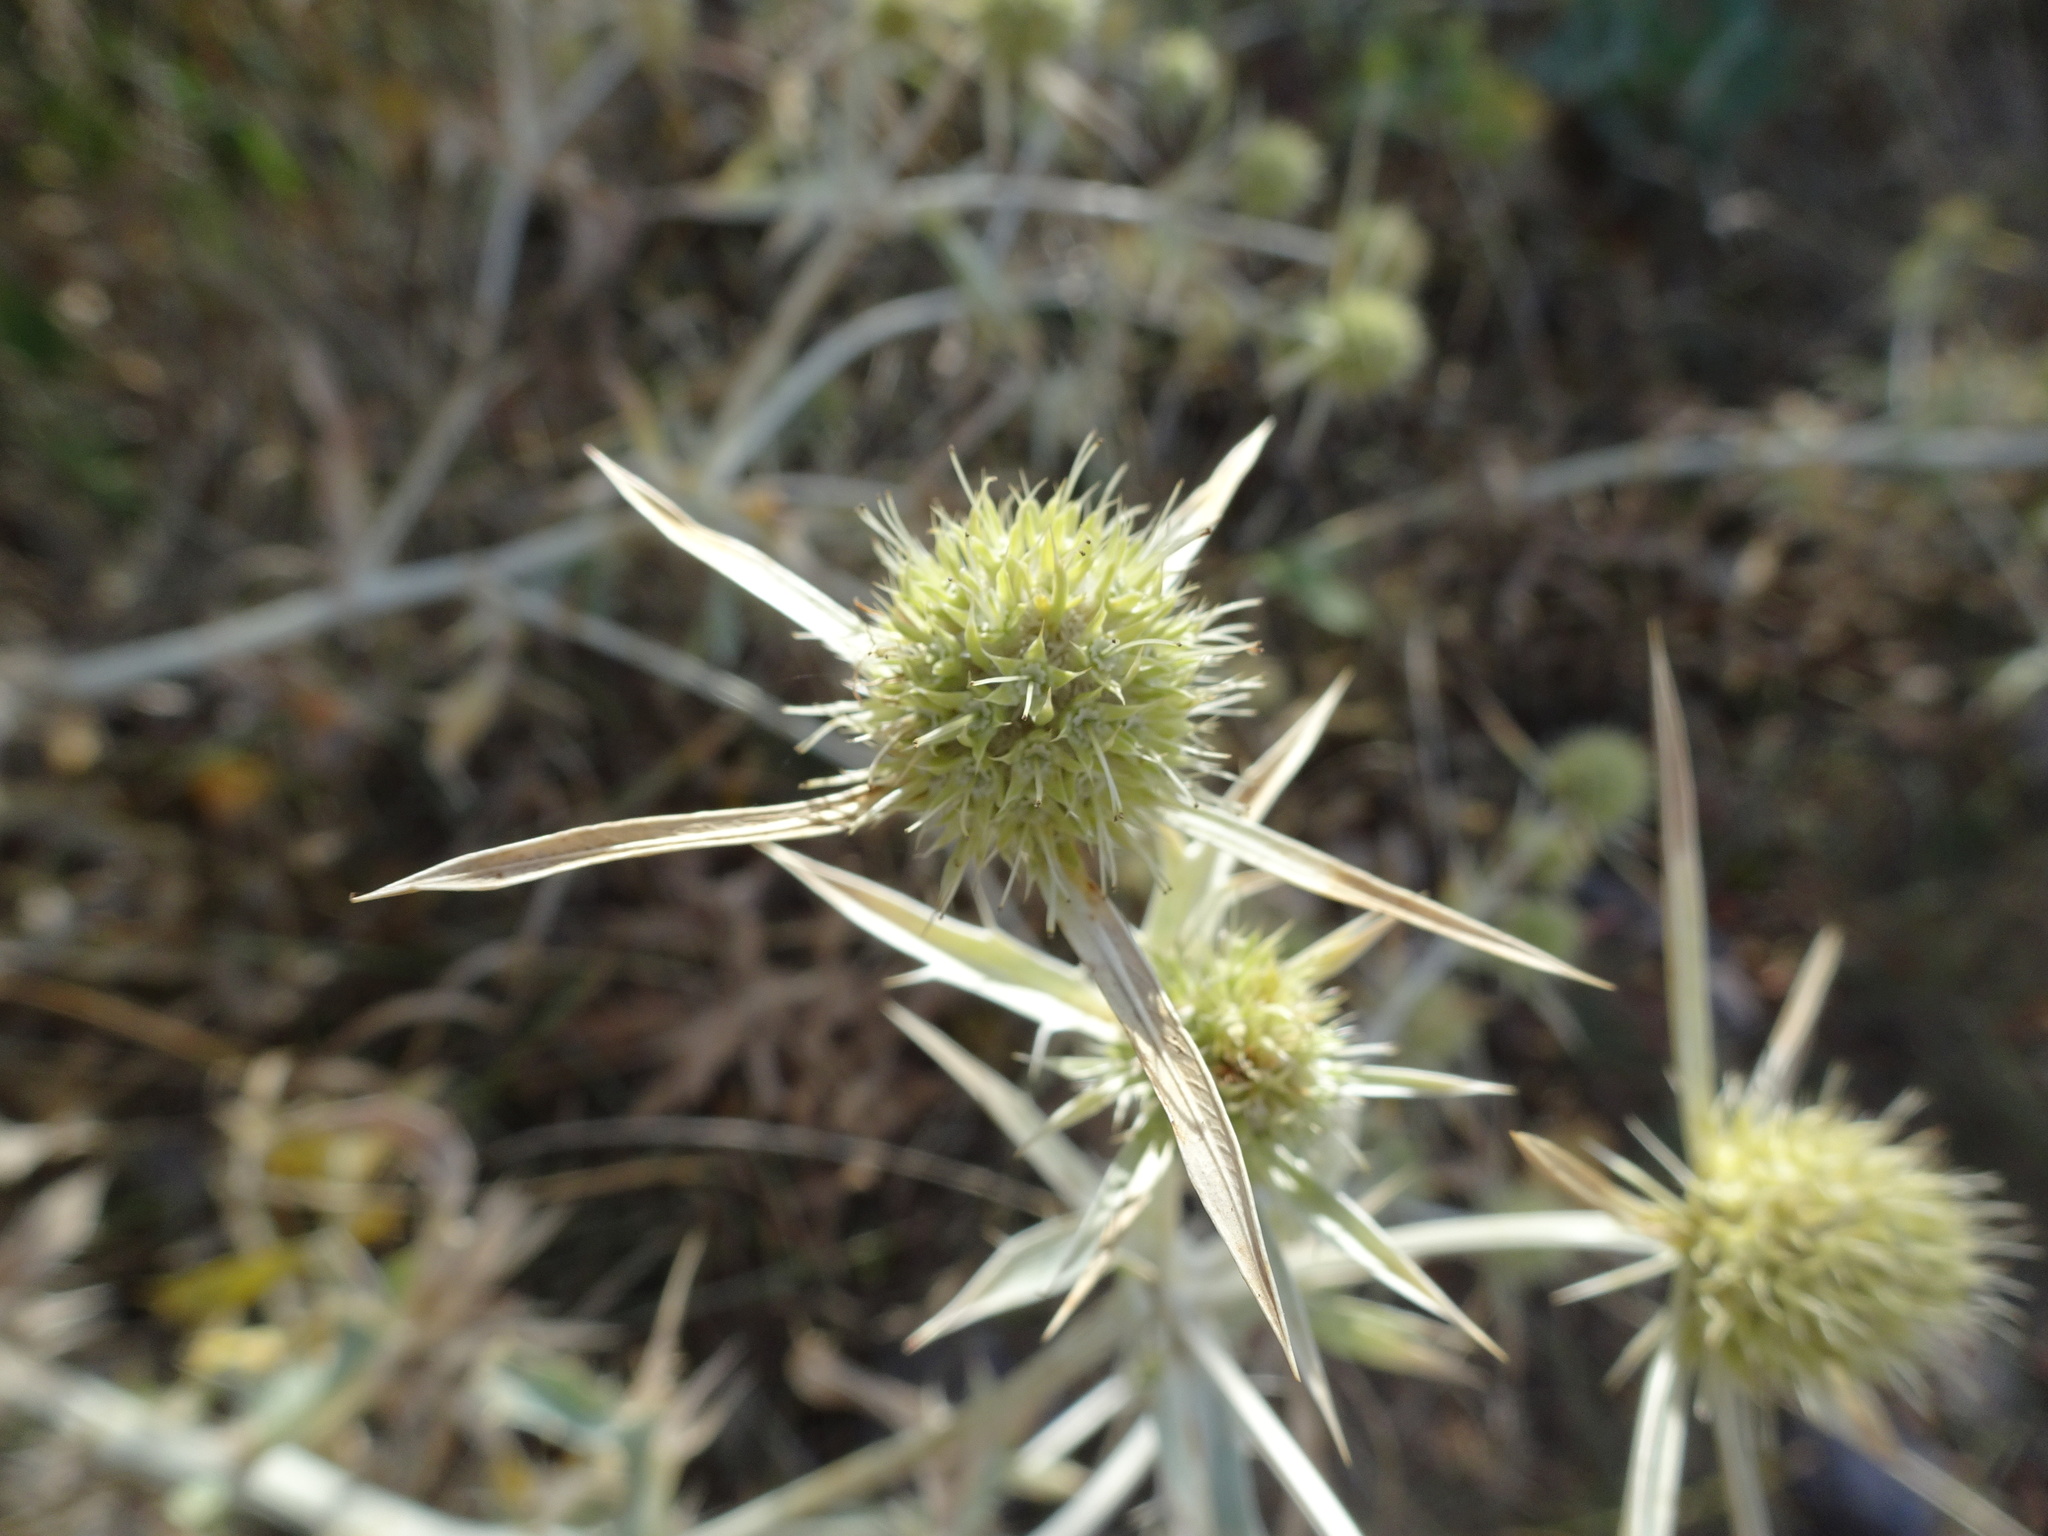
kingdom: Plantae
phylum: Tracheophyta
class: Magnoliopsida
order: Apiales
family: Apiaceae
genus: Eryngium
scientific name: Eryngium campestre
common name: Field eryngo
